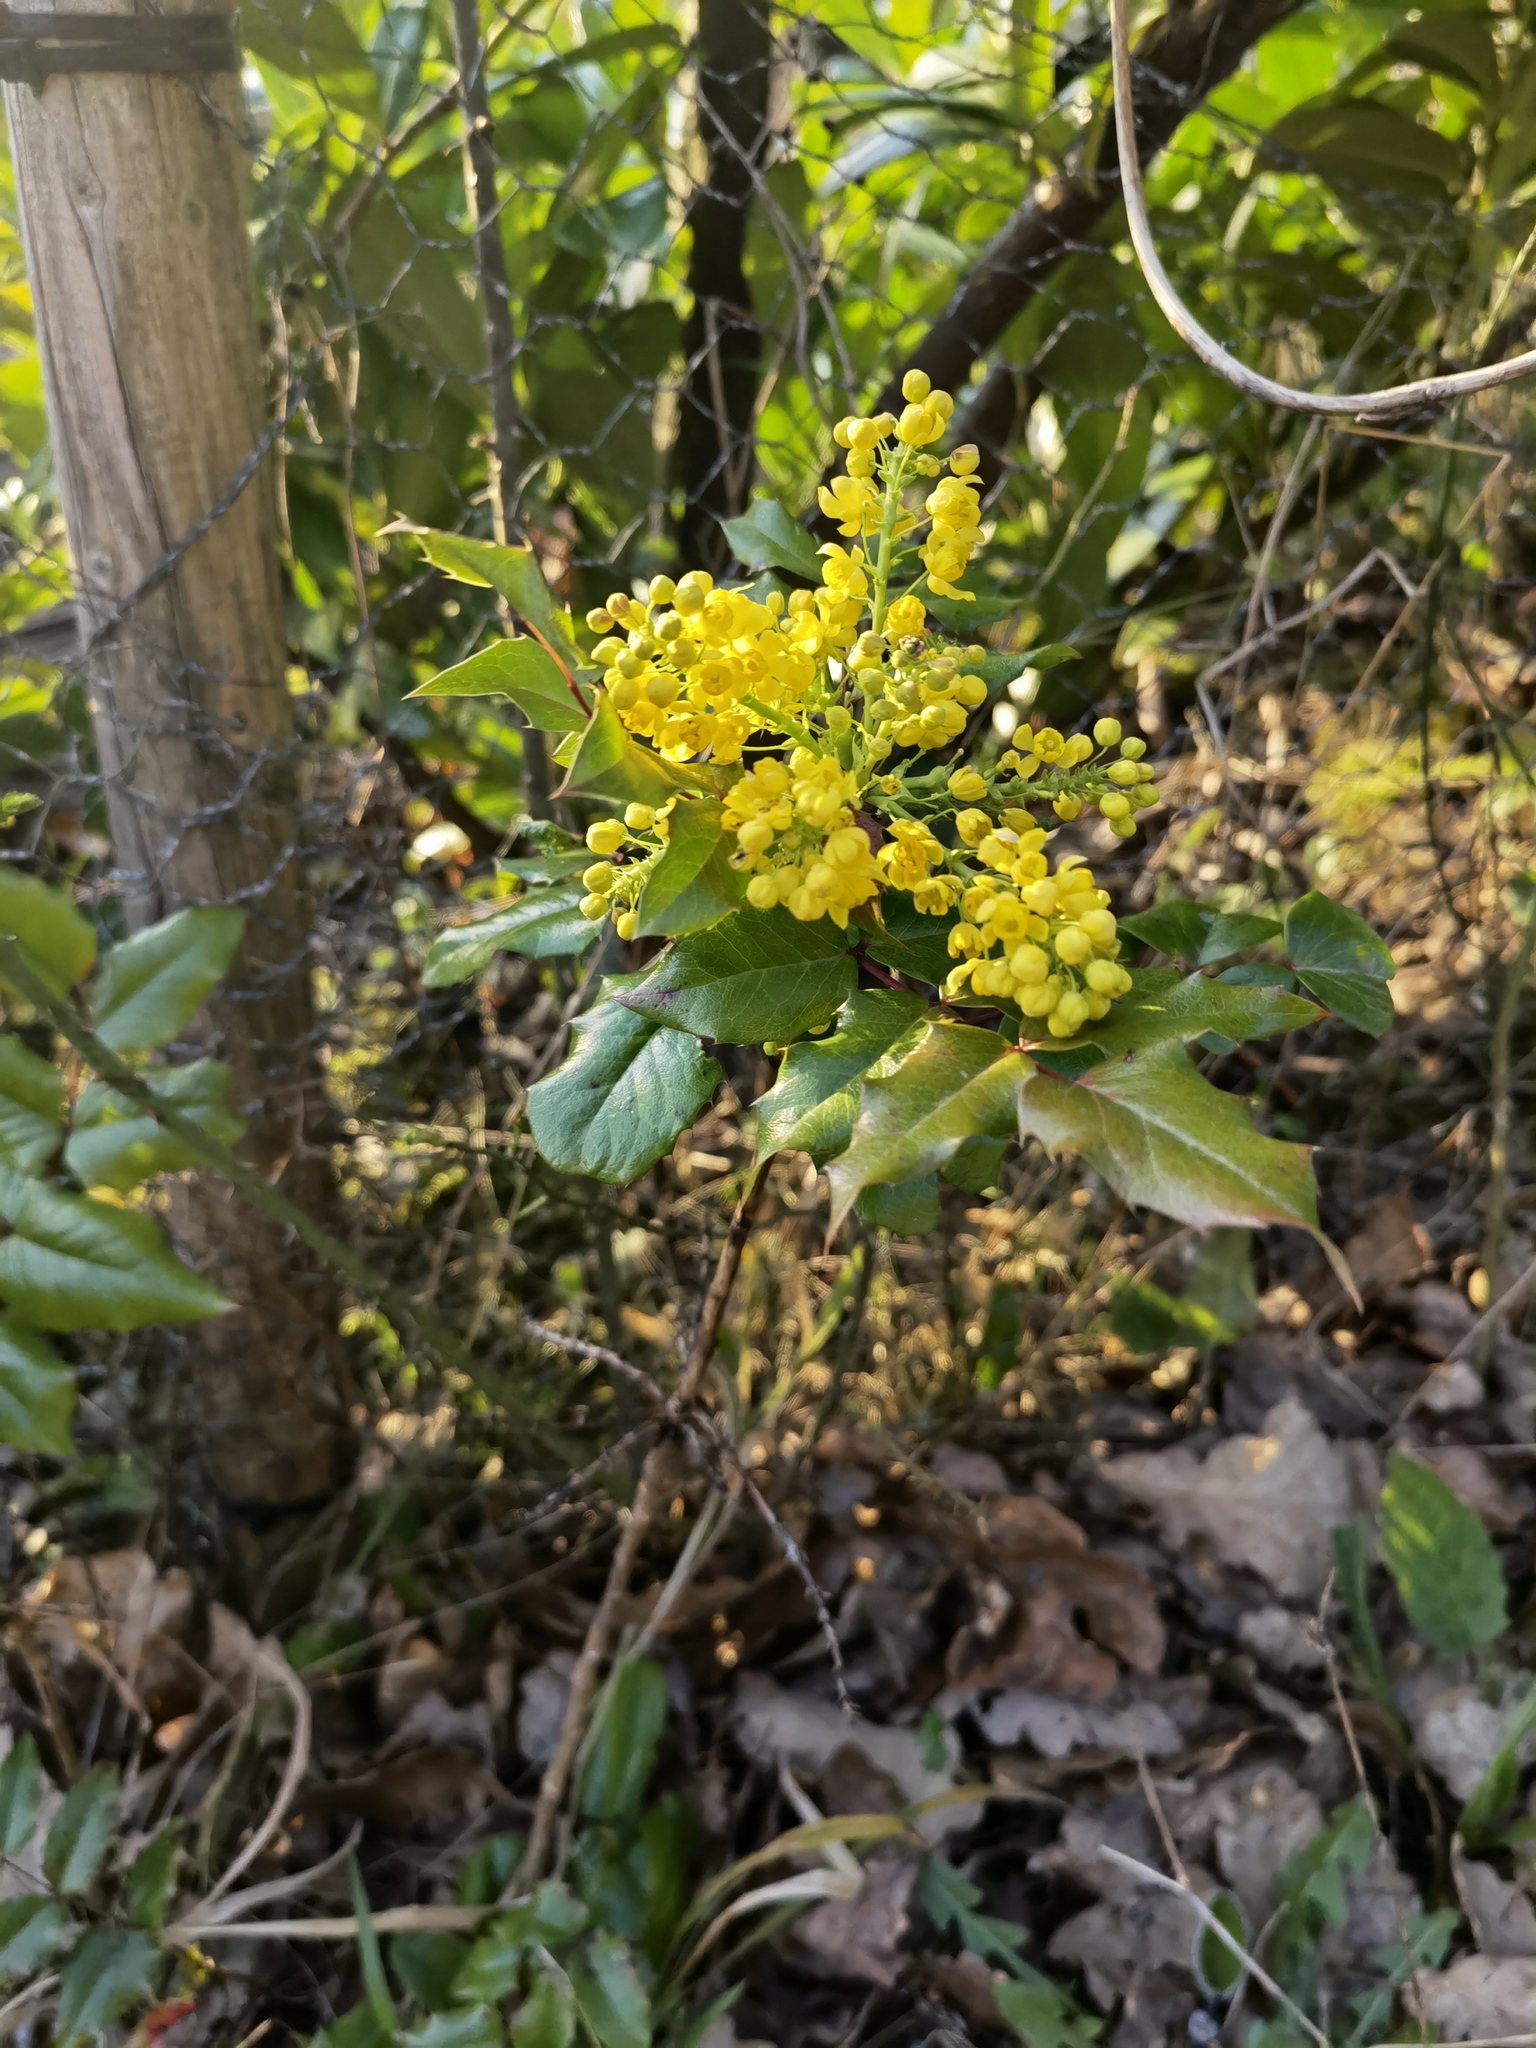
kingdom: Plantae
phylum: Tracheophyta
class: Magnoliopsida
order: Ranunculales
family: Berberidaceae
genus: Mahonia
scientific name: Mahonia aquifolium
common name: Oregon-grape
